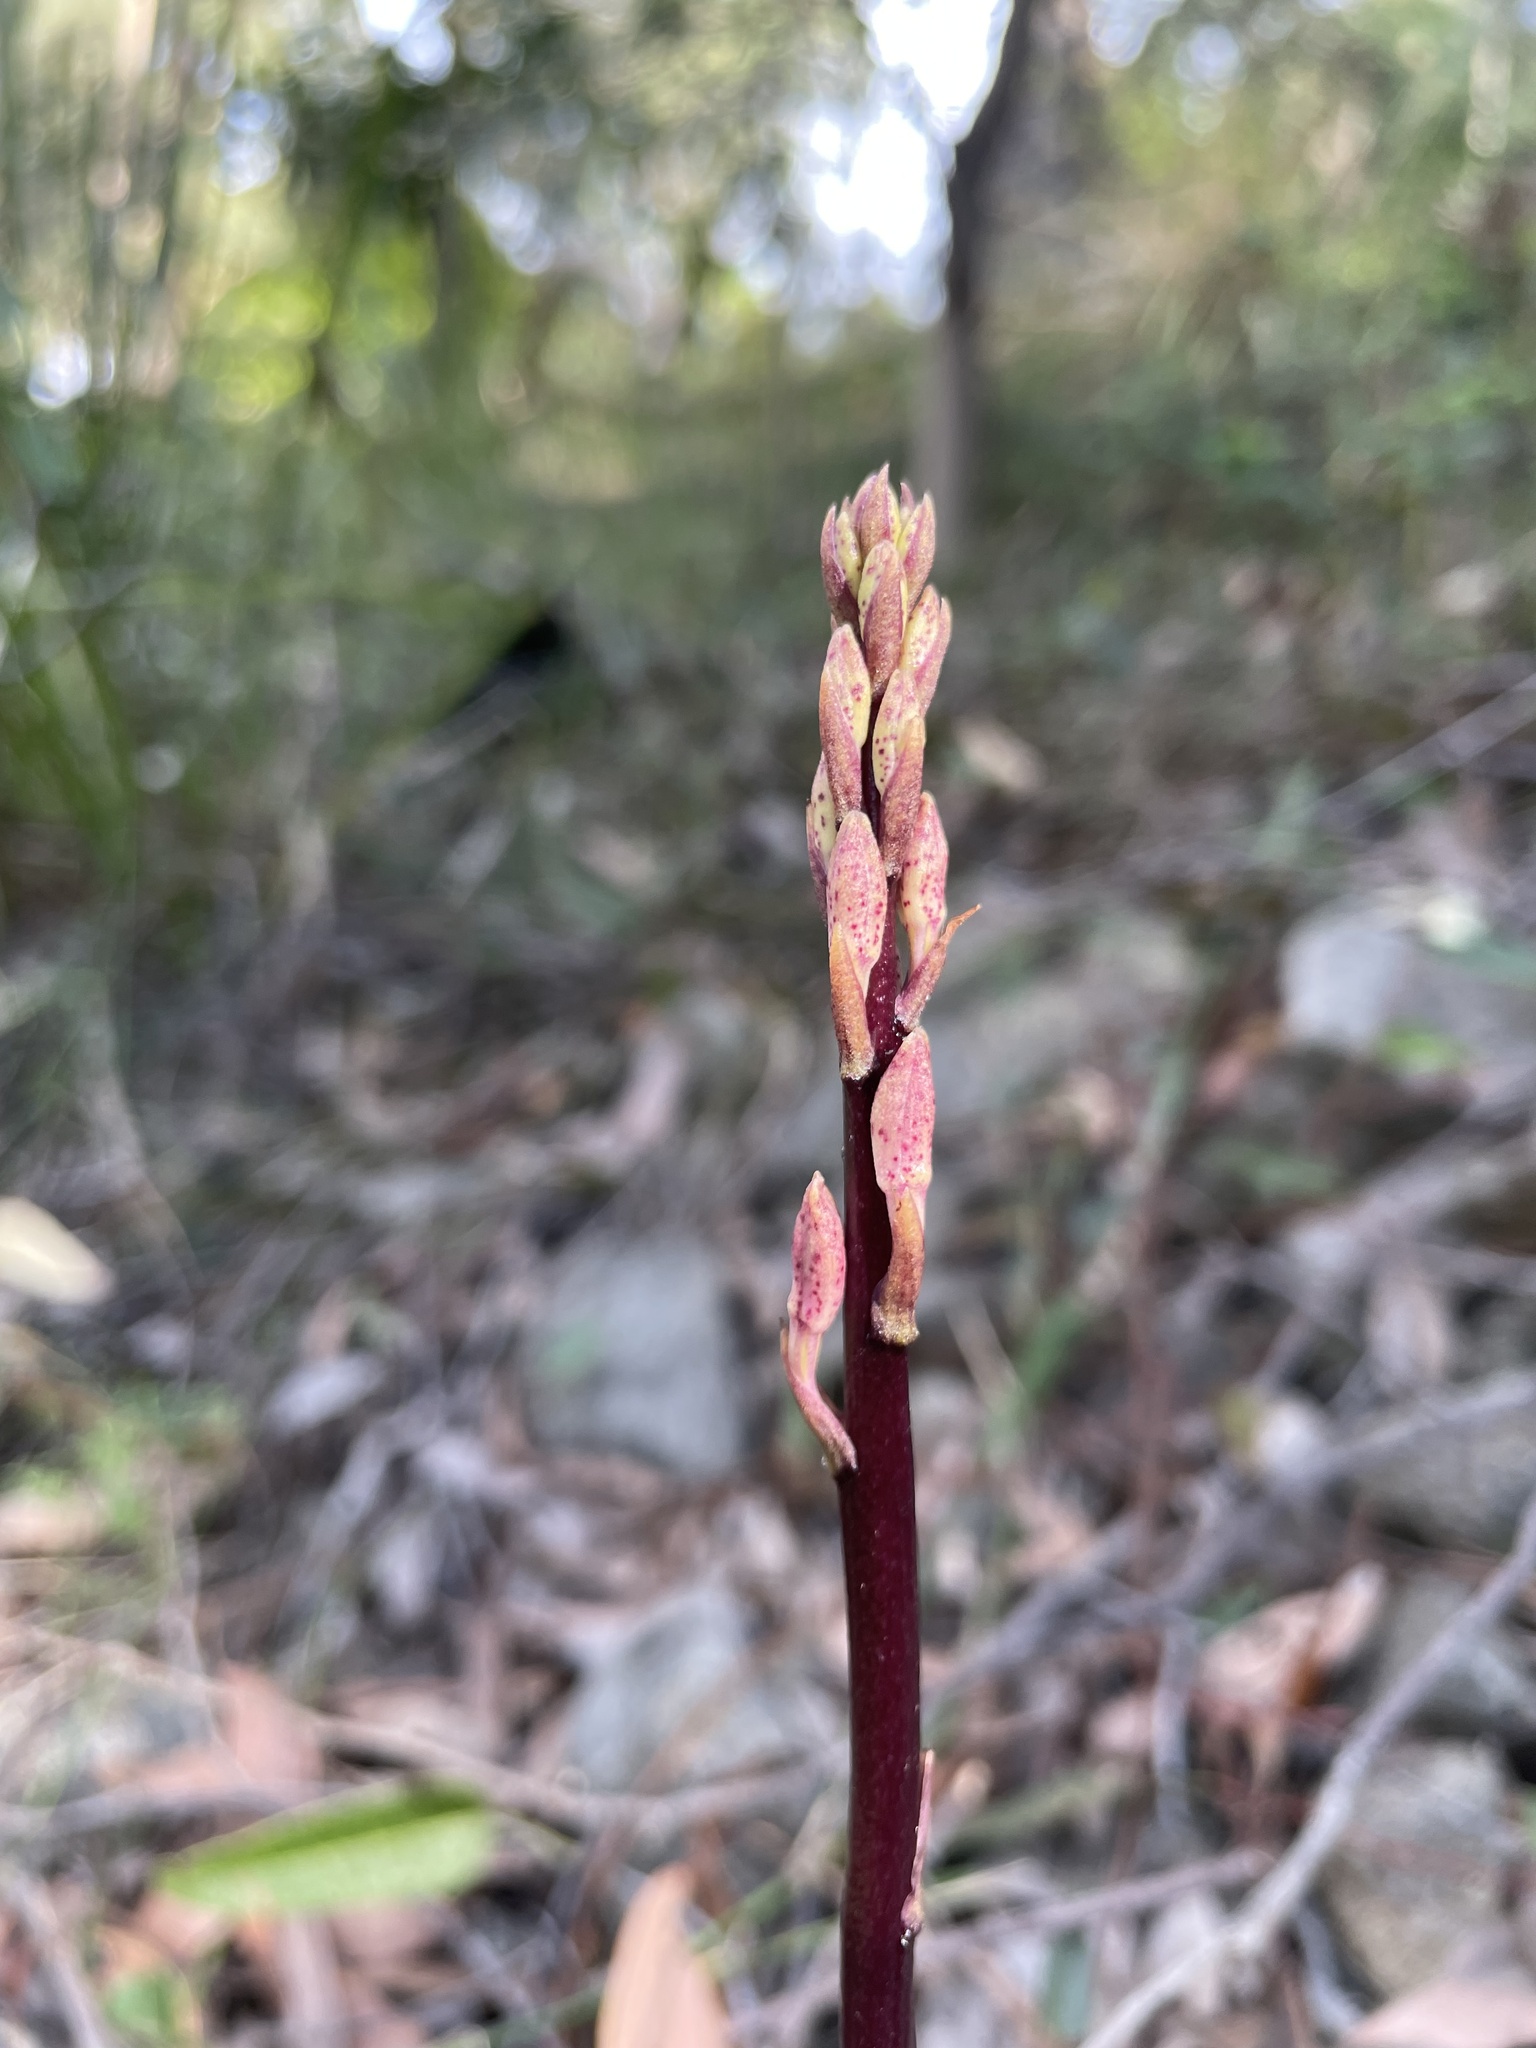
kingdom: Plantae
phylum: Tracheophyta
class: Liliopsida
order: Asparagales
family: Orchidaceae
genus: Dipodium
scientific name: Dipodium roseum
